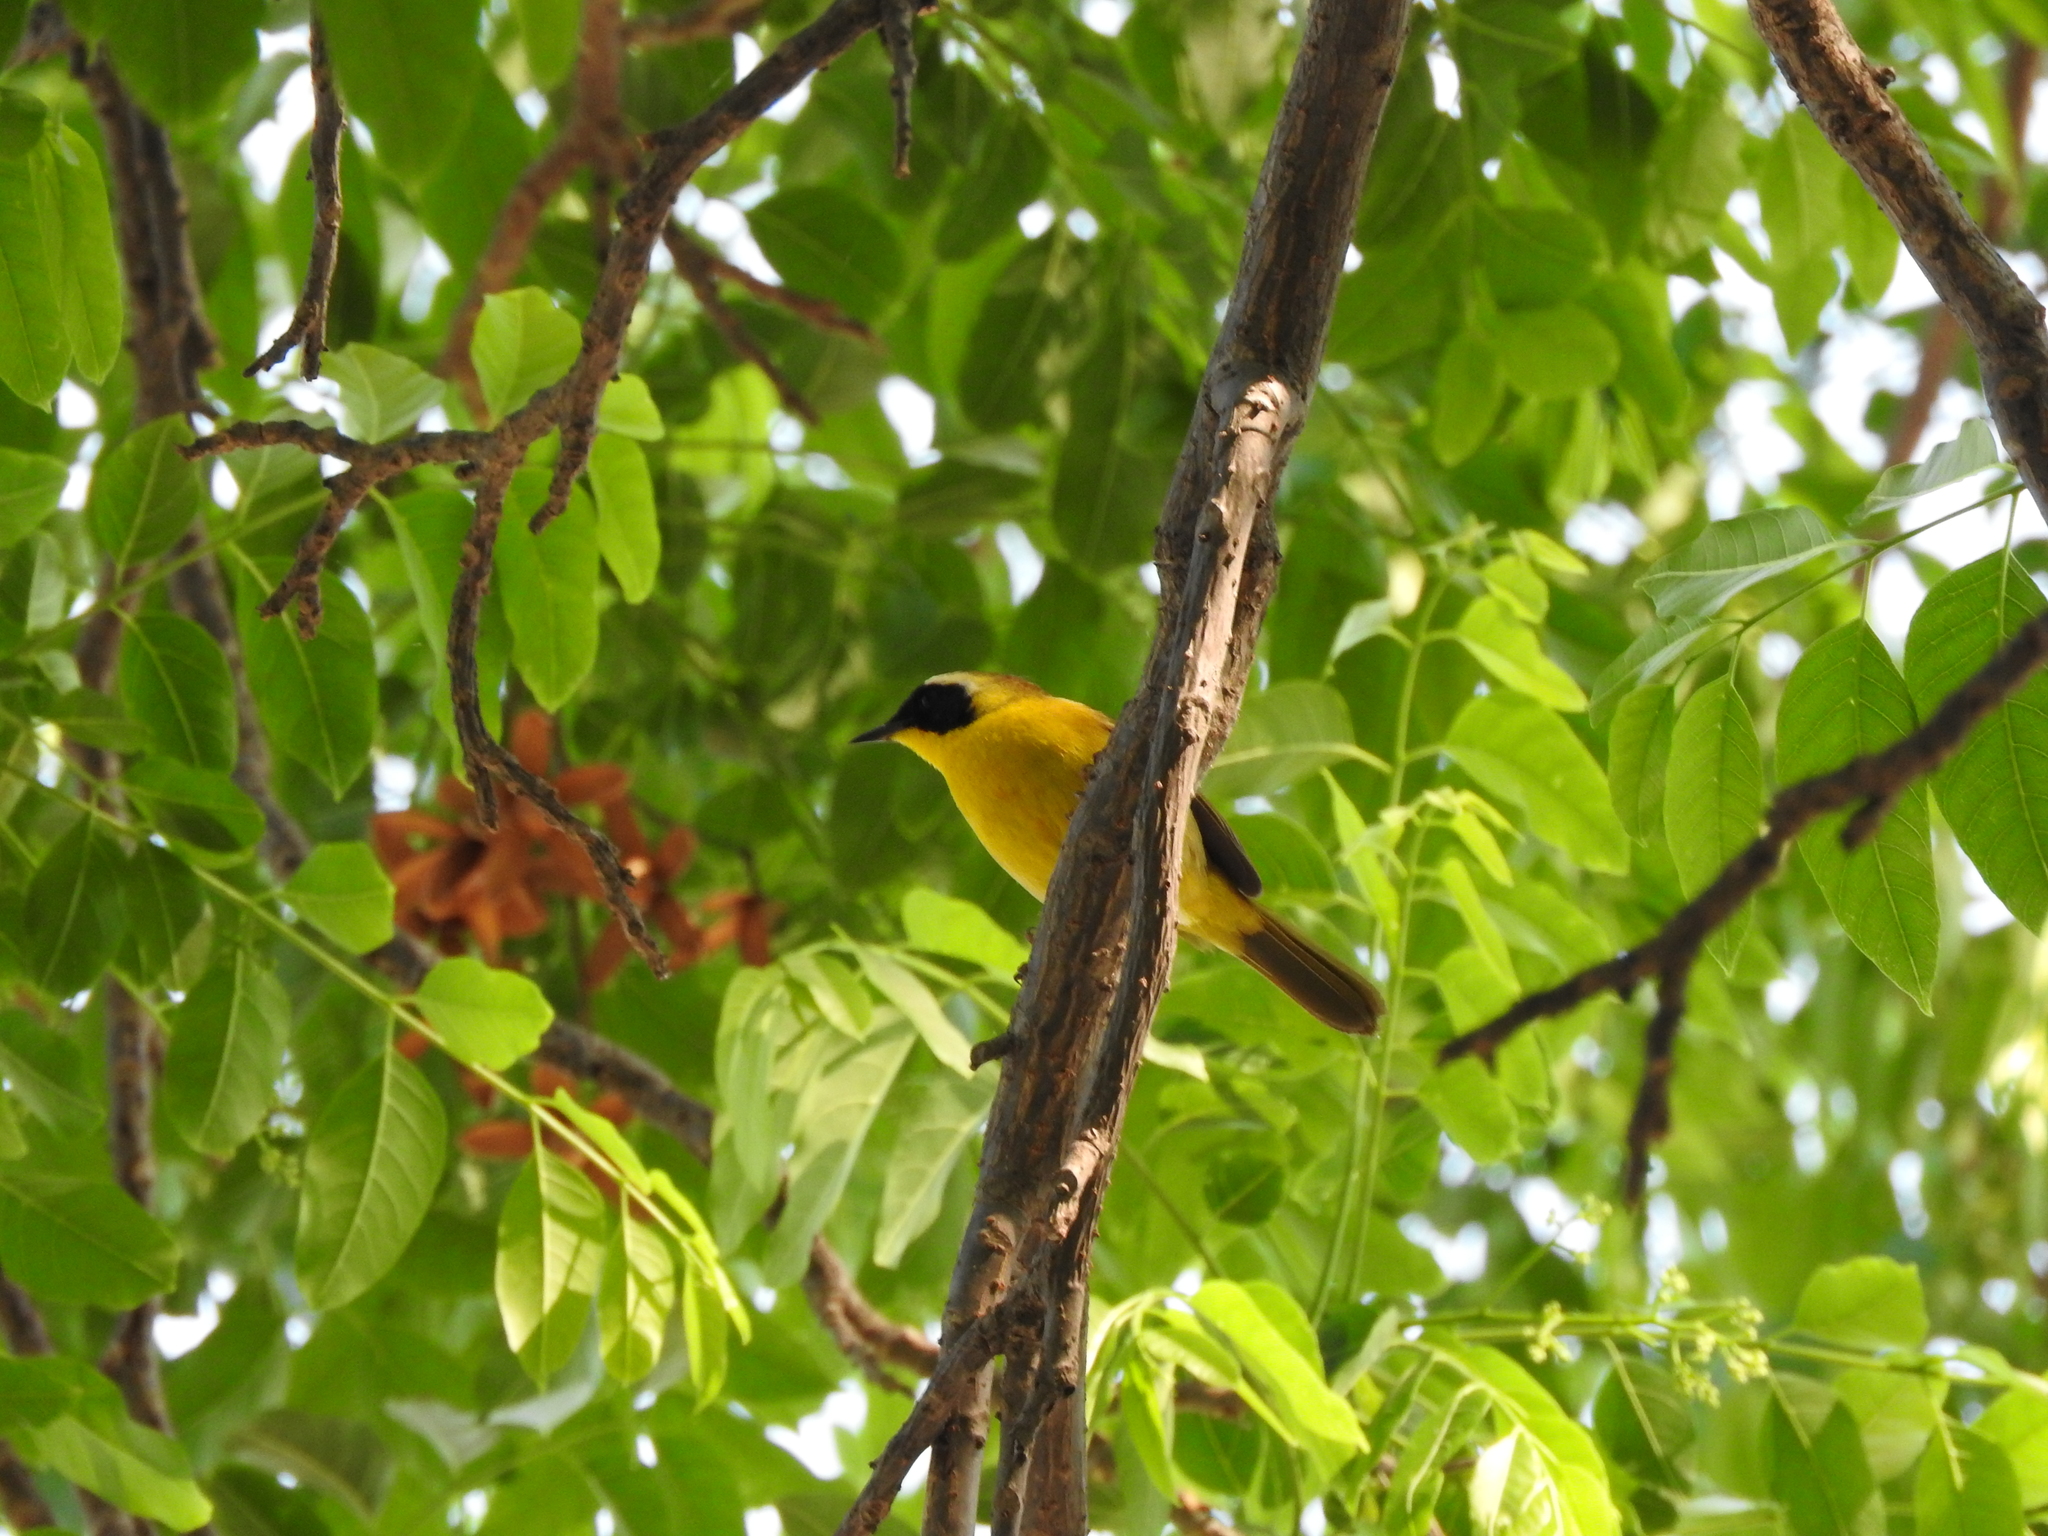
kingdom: Animalia
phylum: Chordata
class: Aves
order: Passeriformes
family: Parulidae
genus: Geothlypis
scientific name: Geothlypis trichas
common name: Common yellowthroat
